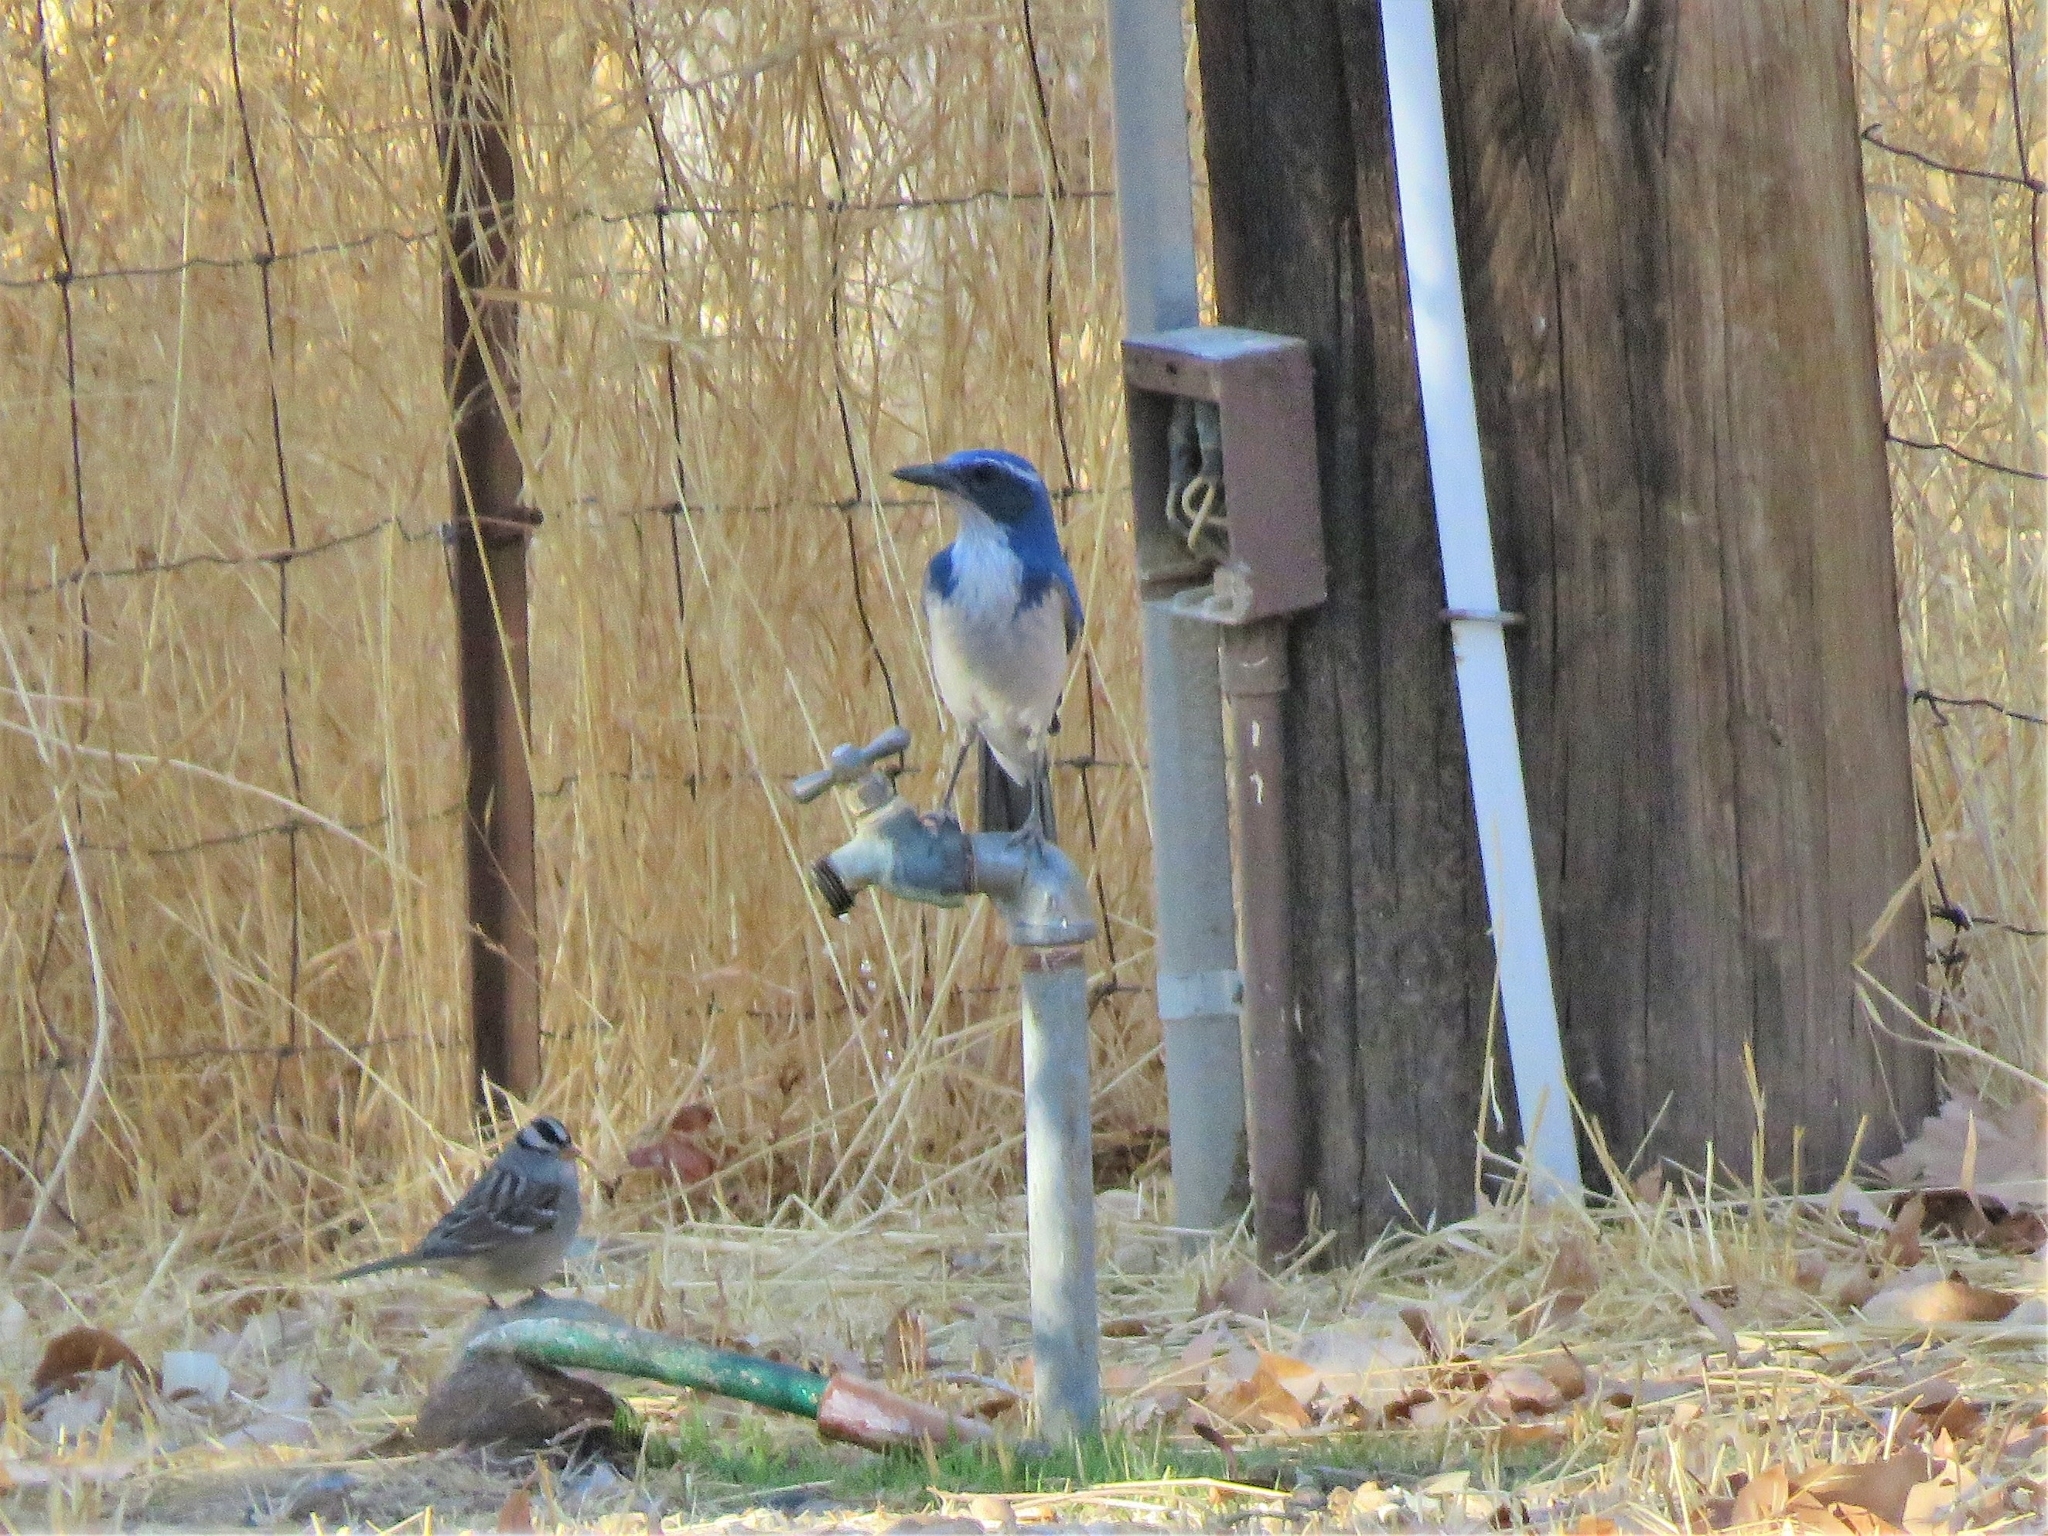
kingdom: Animalia
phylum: Chordata
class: Aves
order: Passeriformes
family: Corvidae
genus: Aphelocoma
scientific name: Aphelocoma californica
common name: California scrub-jay
